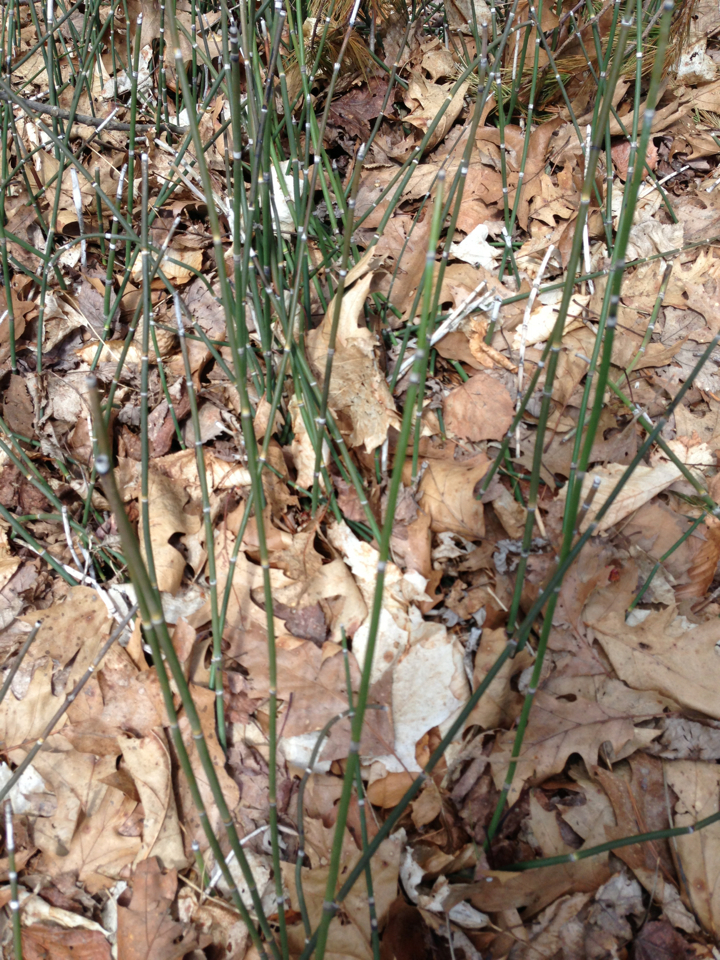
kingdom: Plantae
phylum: Tracheophyta
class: Polypodiopsida
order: Equisetales
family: Equisetaceae
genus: Equisetum
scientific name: Equisetum hyemale
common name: Rough horsetail
